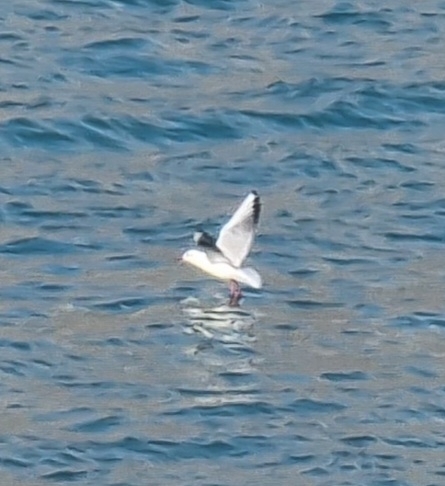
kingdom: Animalia
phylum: Chordata
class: Aves
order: Charadriiformes
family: Laridae
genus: Chroicocephalus
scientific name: Chroicocephalus ridibundus
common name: Black-headed gull
